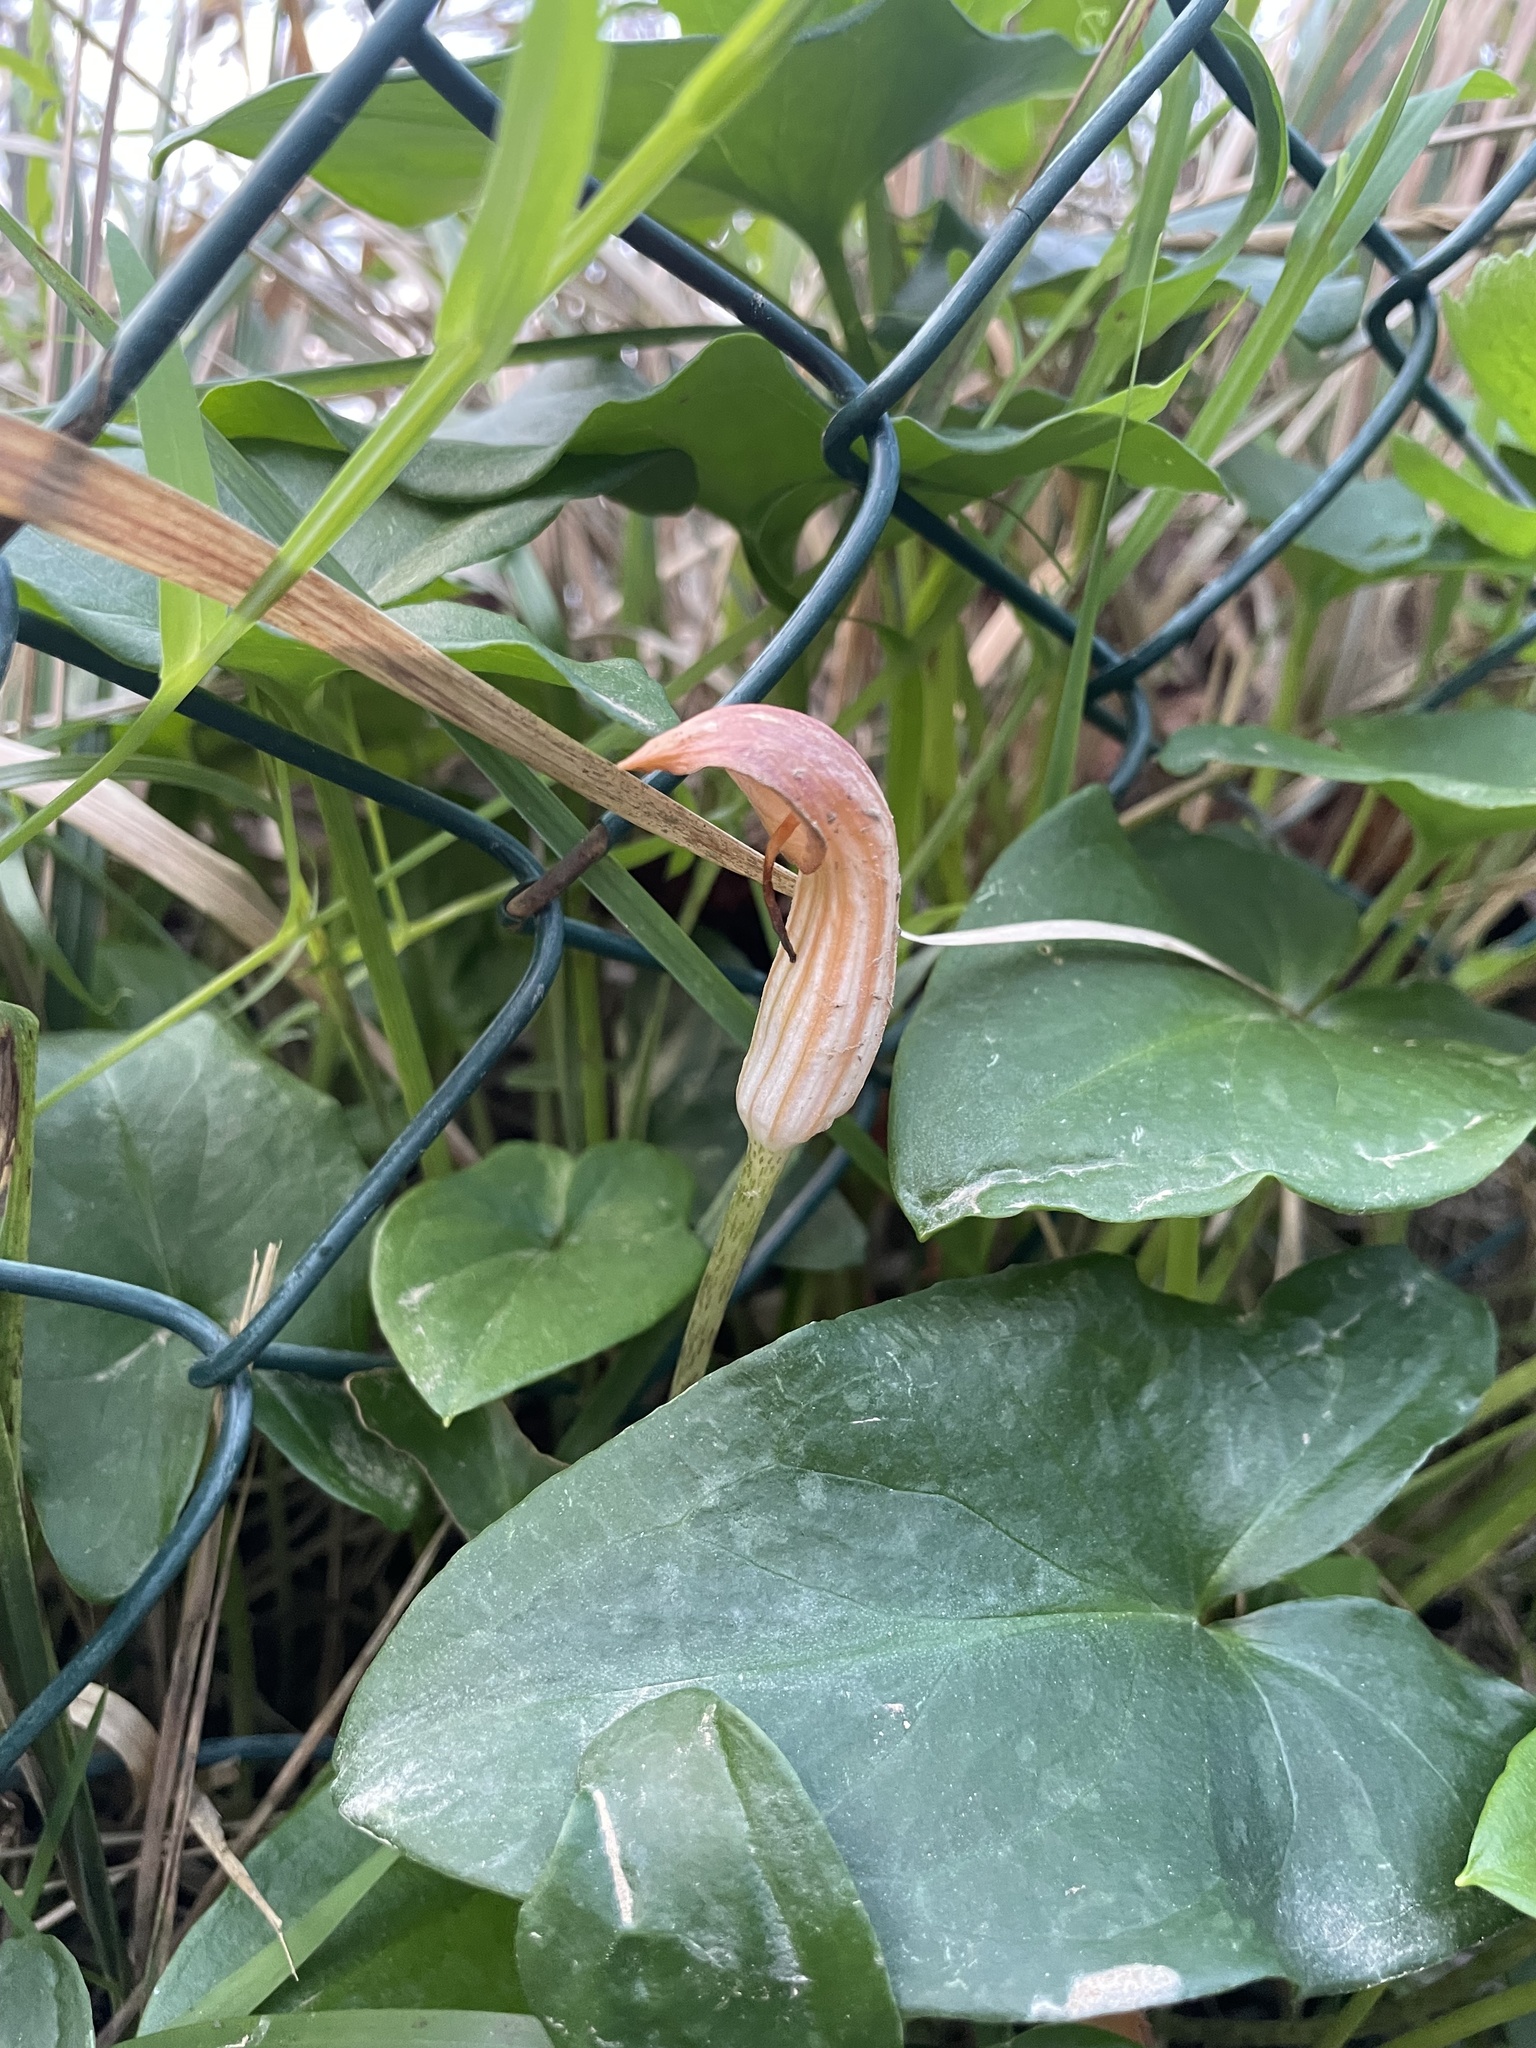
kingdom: Plantae
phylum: Tracheophyta
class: Liliopsida
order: Alismatales
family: Araceae
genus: Arisarum
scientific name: Arisarum vulgare
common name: Common arisarum
